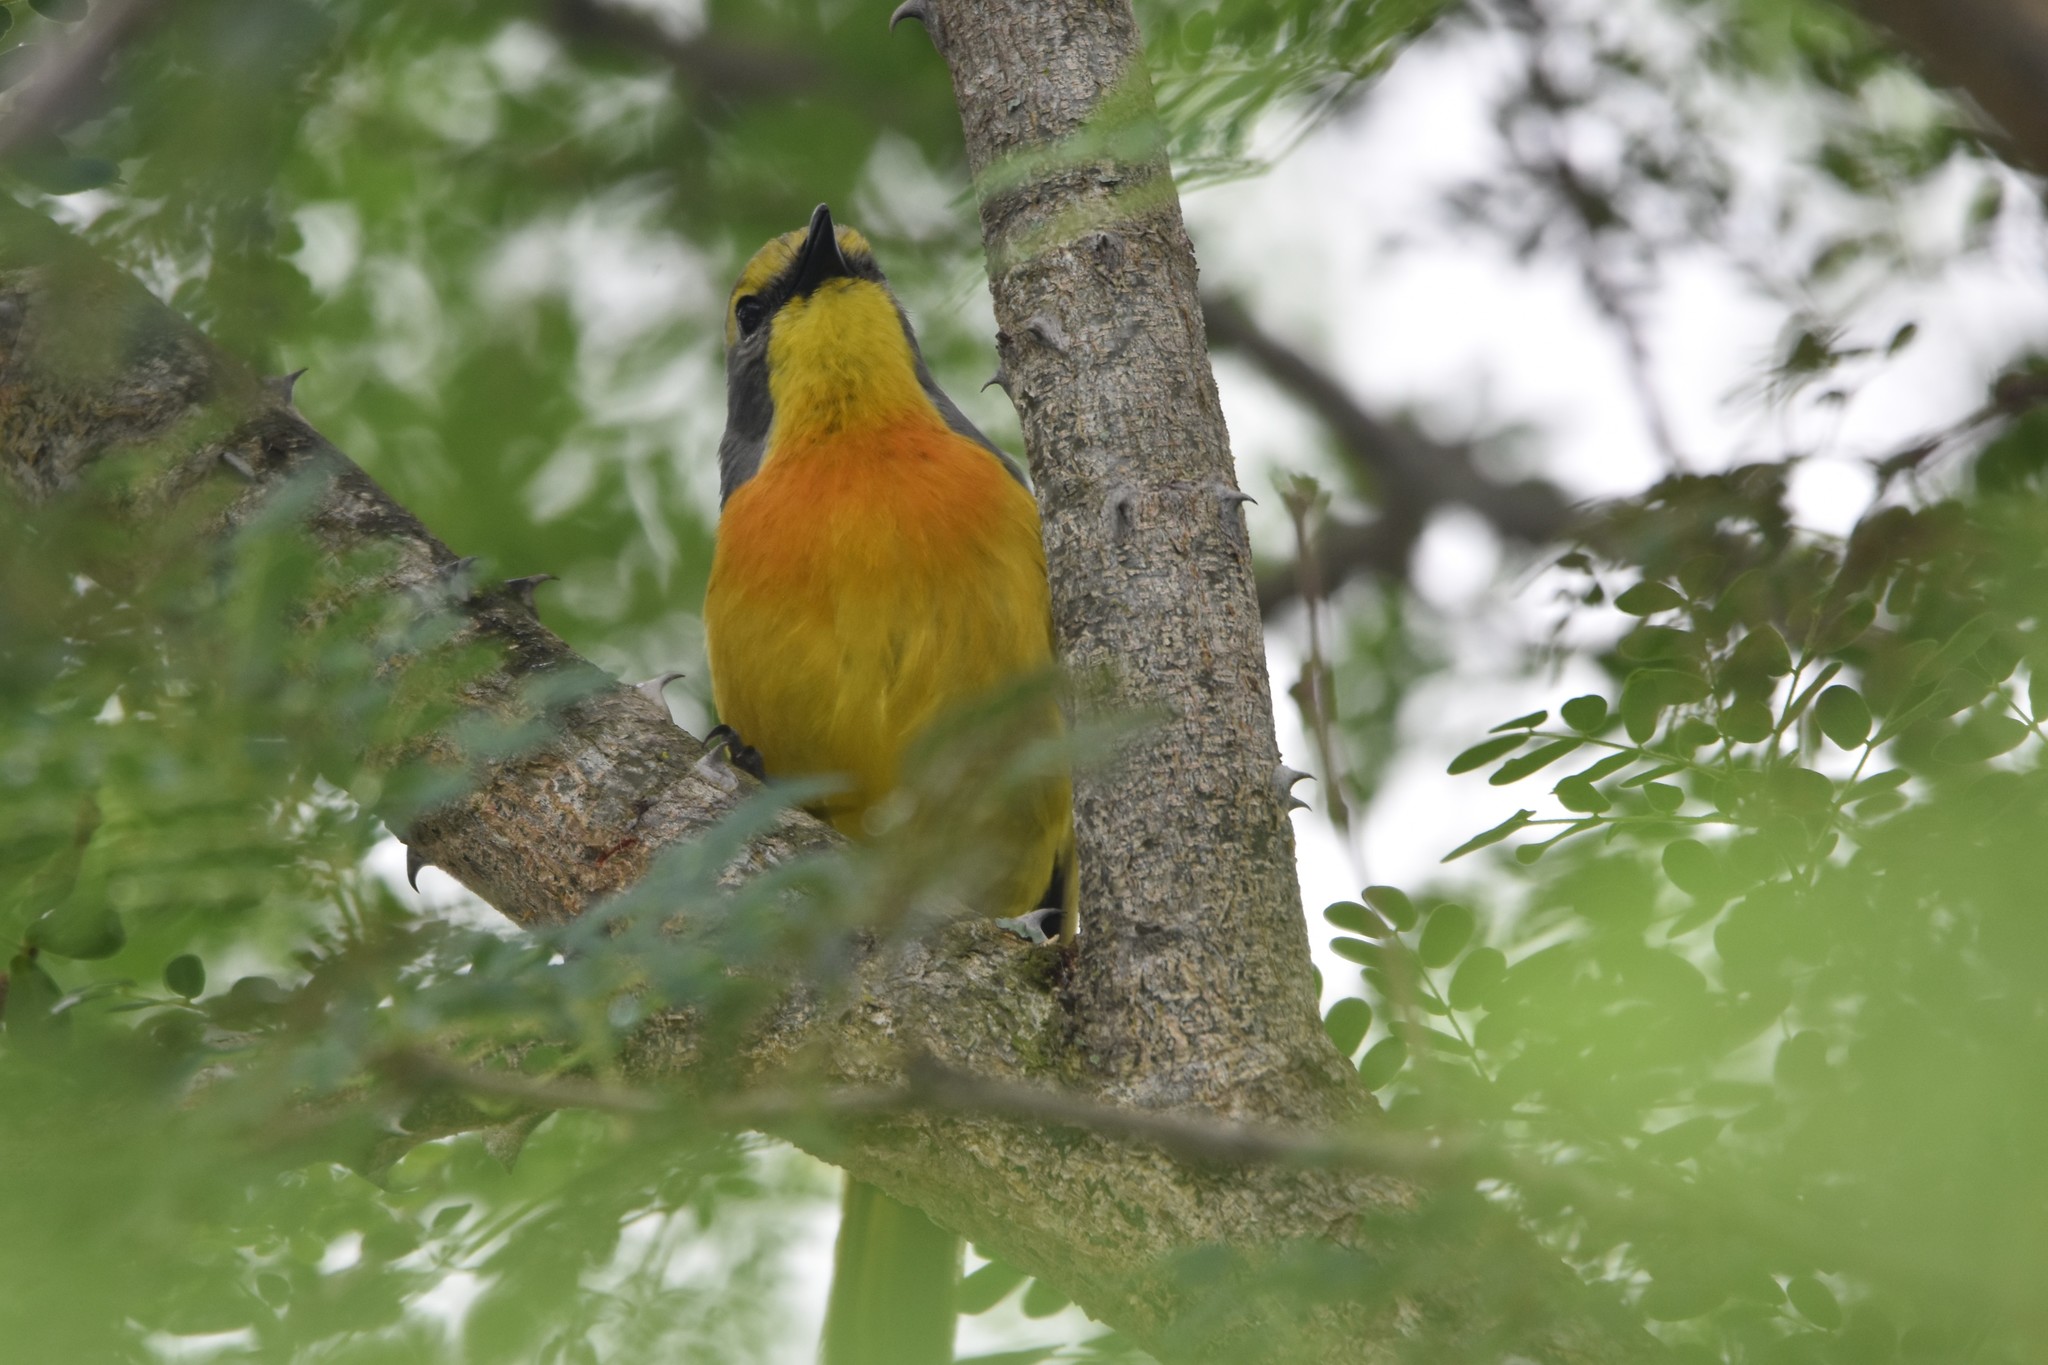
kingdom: Animalia
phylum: Chordata
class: Aves
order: Passeriformes
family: Malaconotidae
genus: Chlorophoneus
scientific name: Chlorophoneus sulfureopectus
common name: Orange-breasted bushshrike
